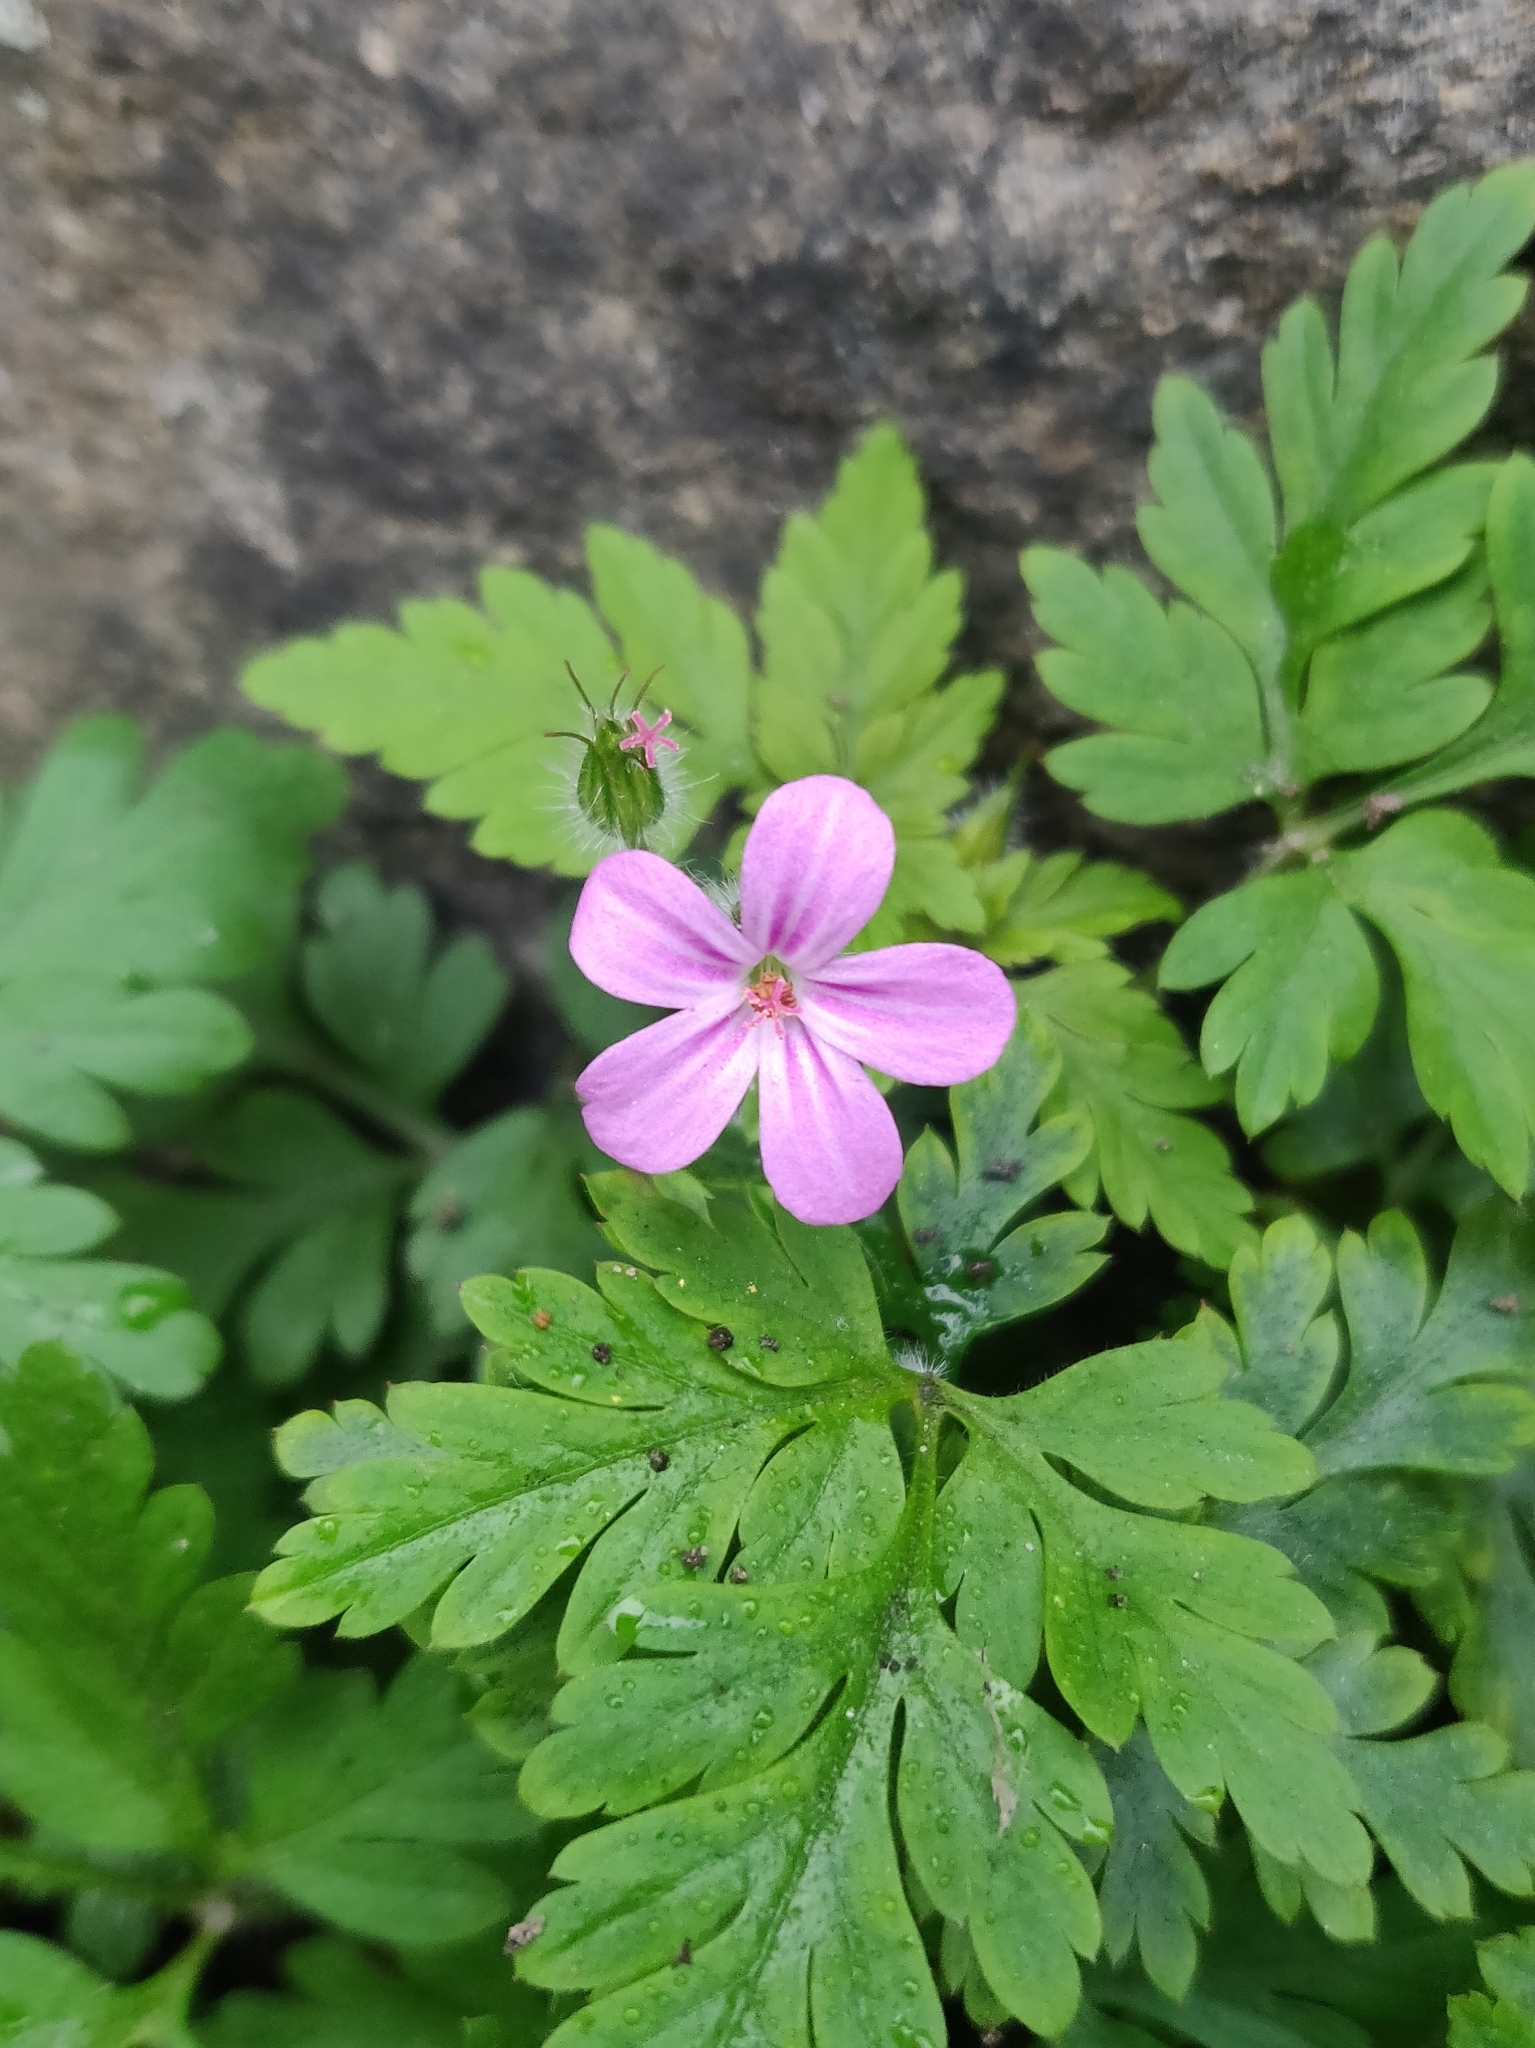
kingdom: Plantae
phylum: Tracheophyta
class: Magnoliopsida
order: Geraniales
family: Geraniaceae
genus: Geranium
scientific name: Geranium robertianum
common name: Herb-robert
